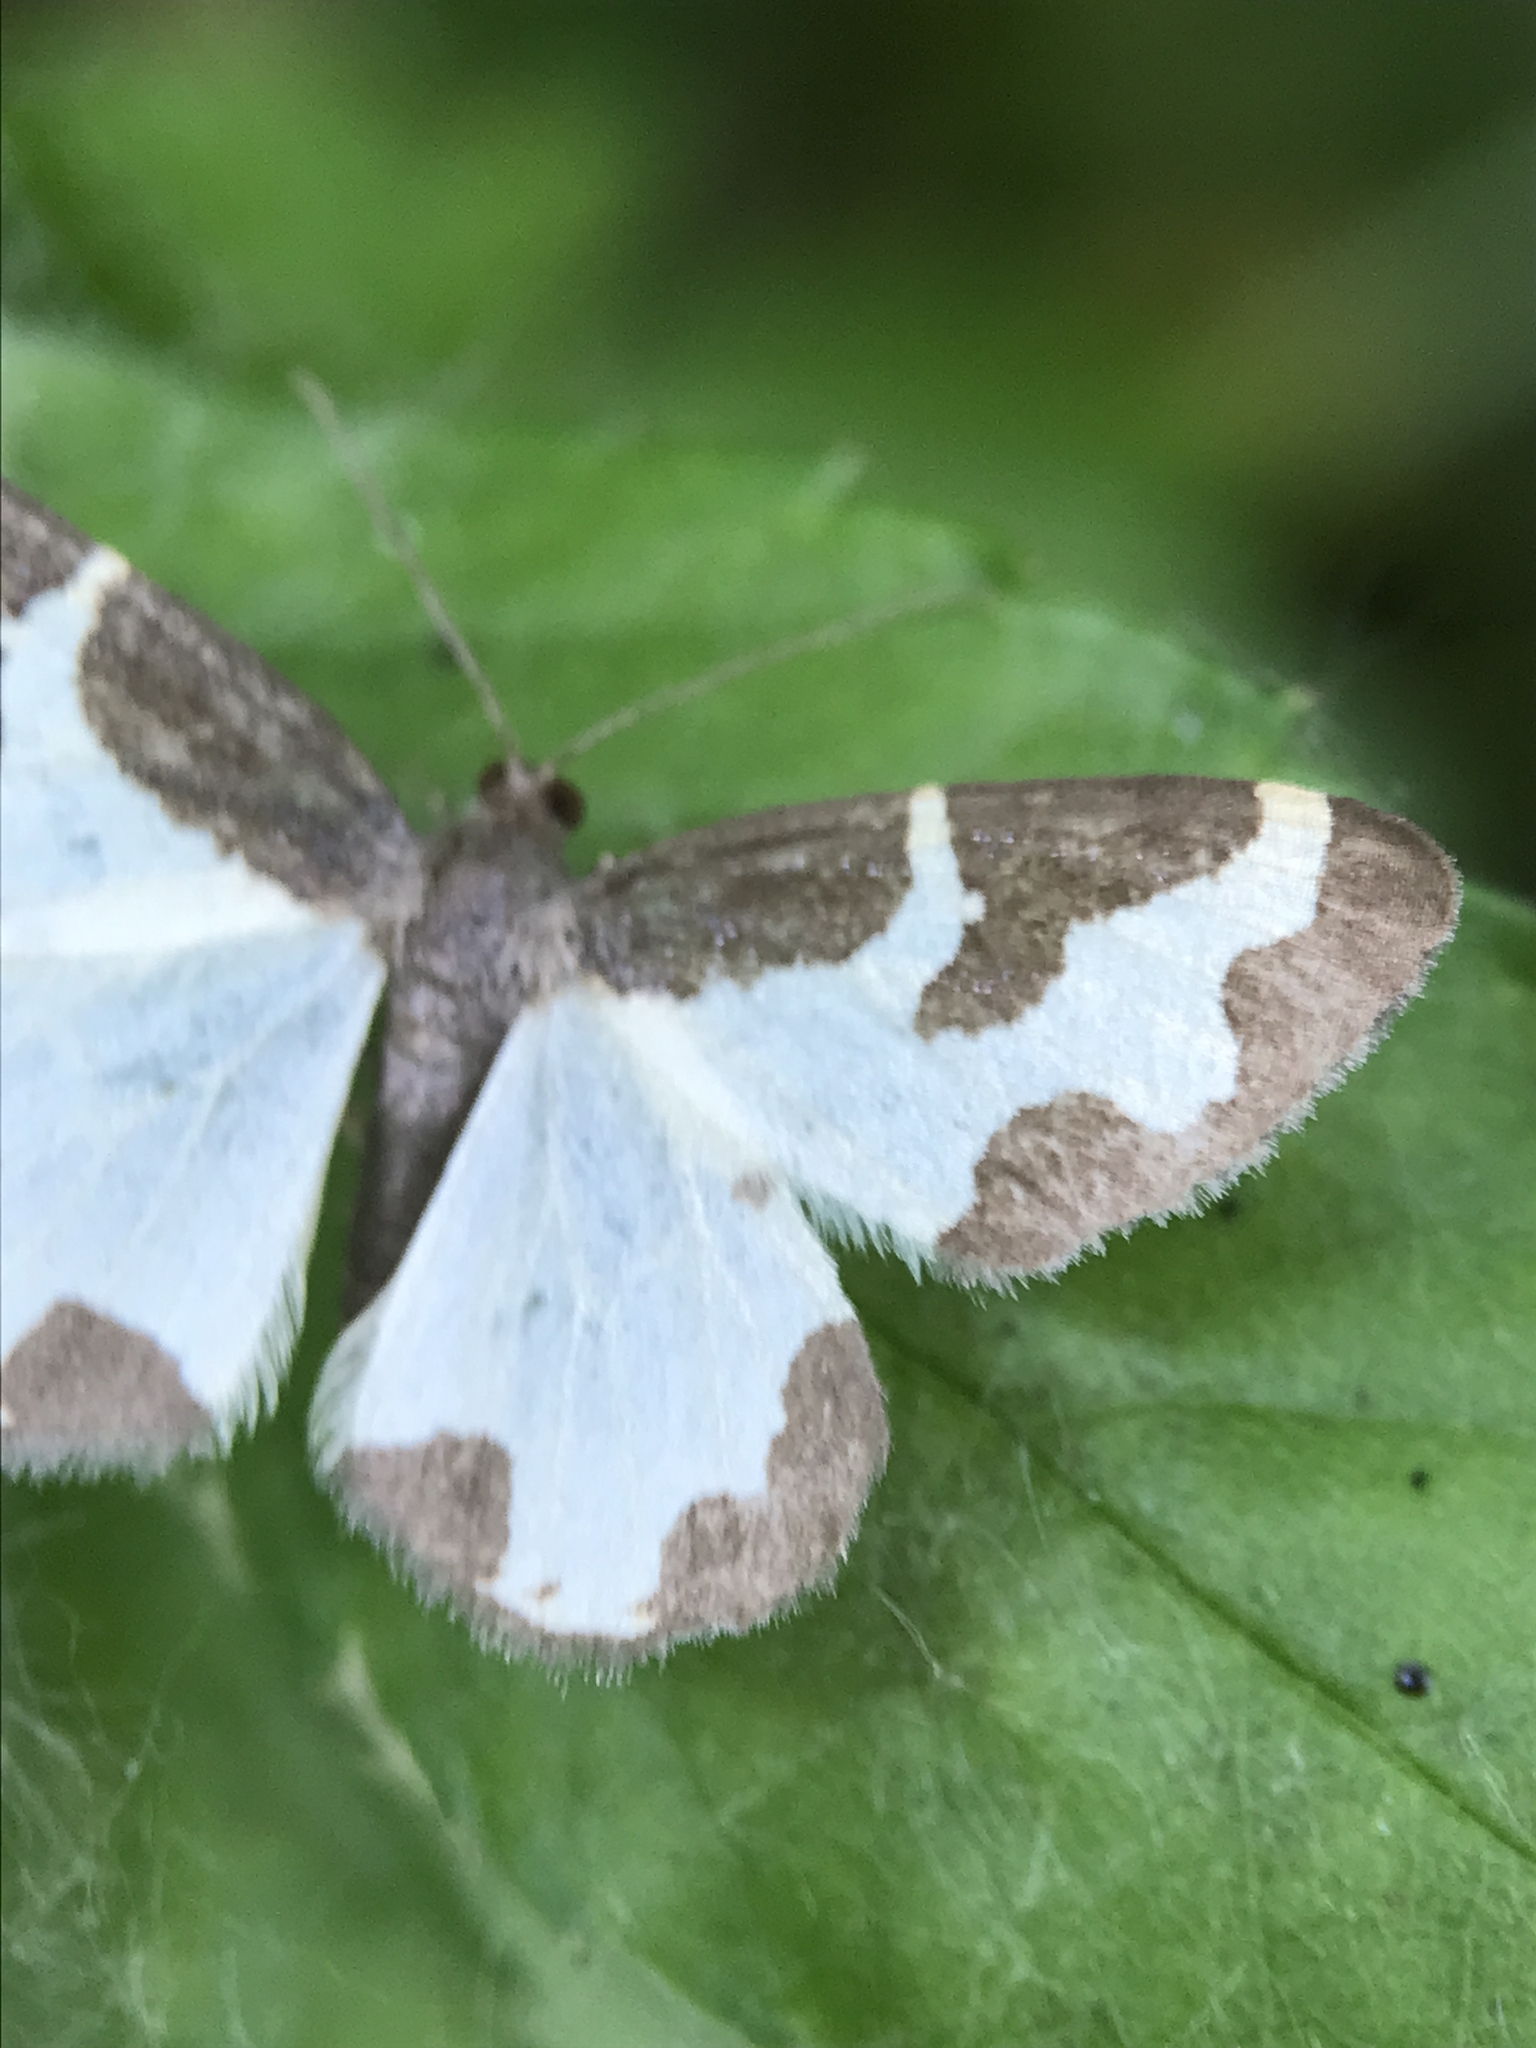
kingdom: Animalia
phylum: Arthropoda
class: Insecta
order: Lepidoptera
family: Geometridae
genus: Lomaspilis
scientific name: Lomaspilis marginata
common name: Clouded border
